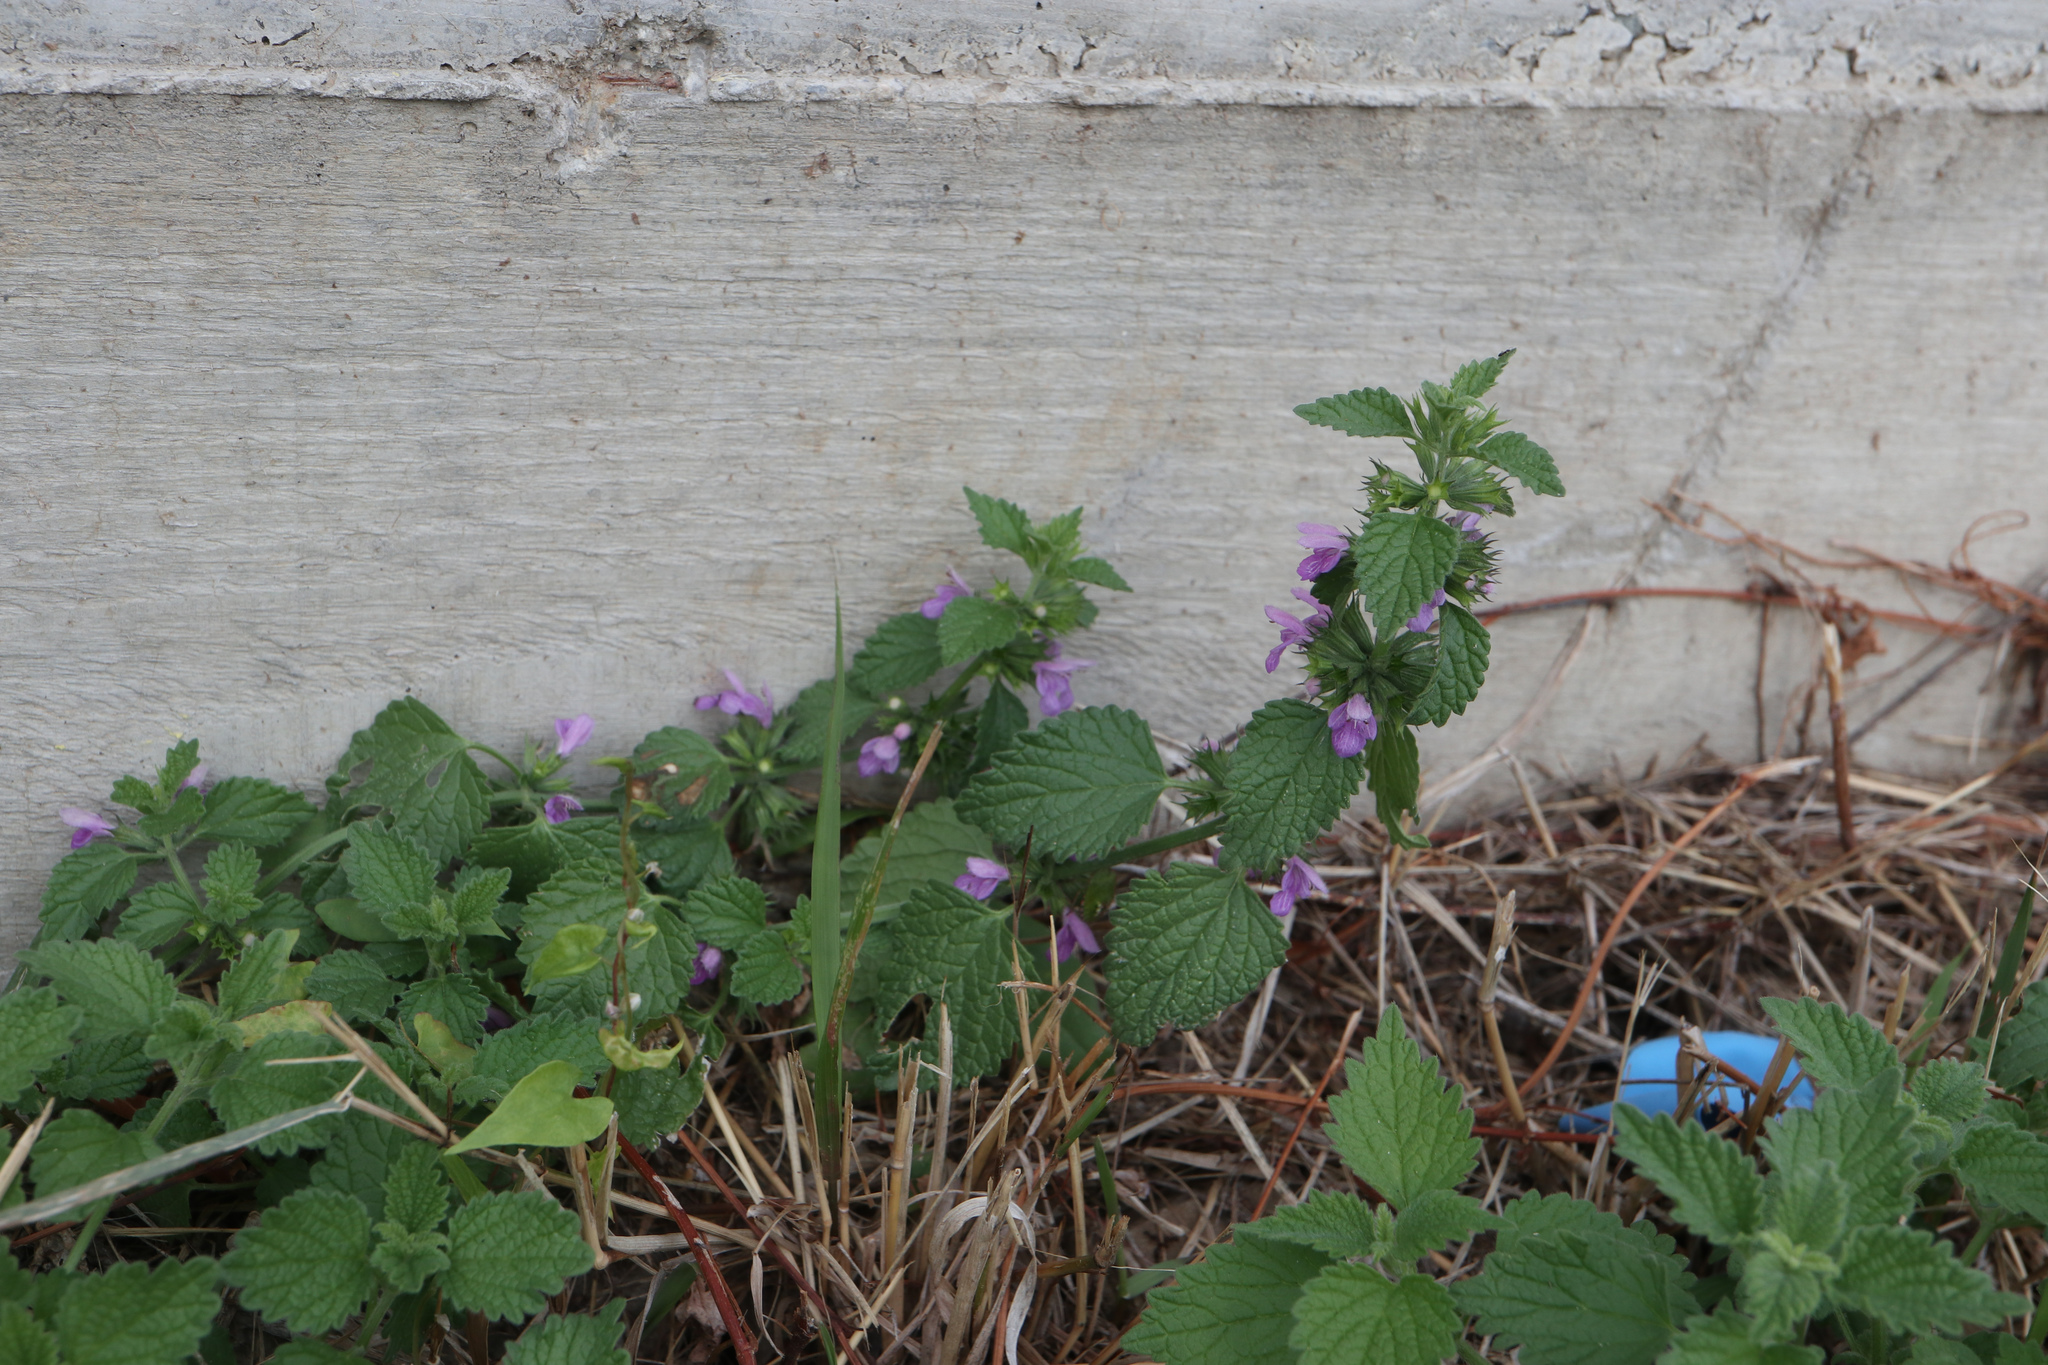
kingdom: Plantae
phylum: Tracheophyta
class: Magnoliopsida
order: Lamiales
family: Lamiaceae
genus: Ballota
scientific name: Ballota nigra
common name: Black horehound
